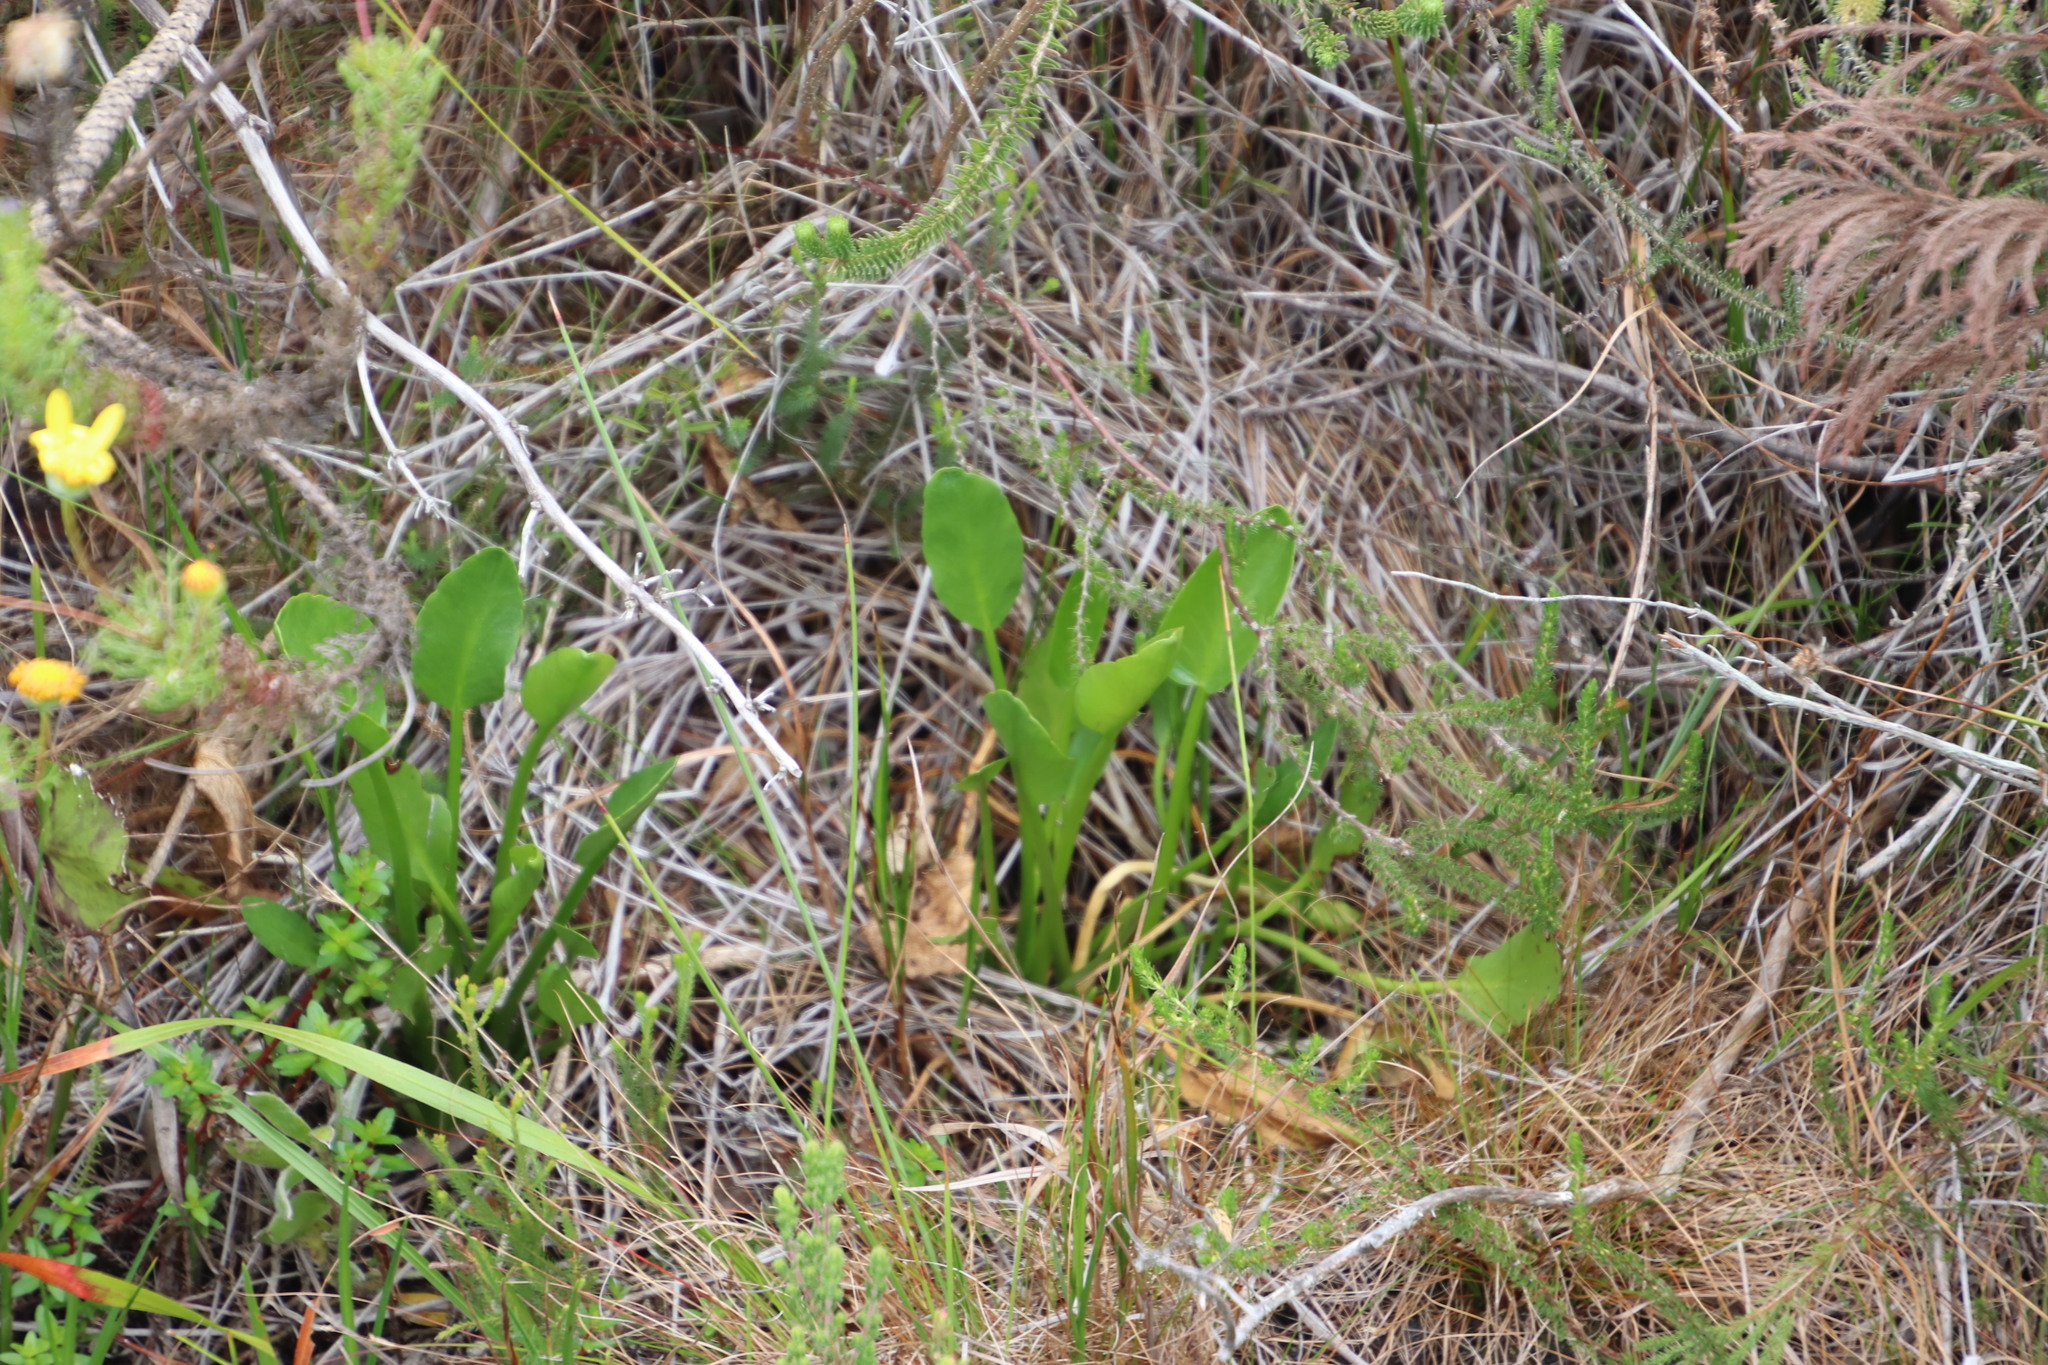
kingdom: Plantae
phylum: Tracheophyta
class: Magnoliopsida
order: Asterales
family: Menyanthaceae
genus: Villarsia
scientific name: Villarsia goldblattiana
